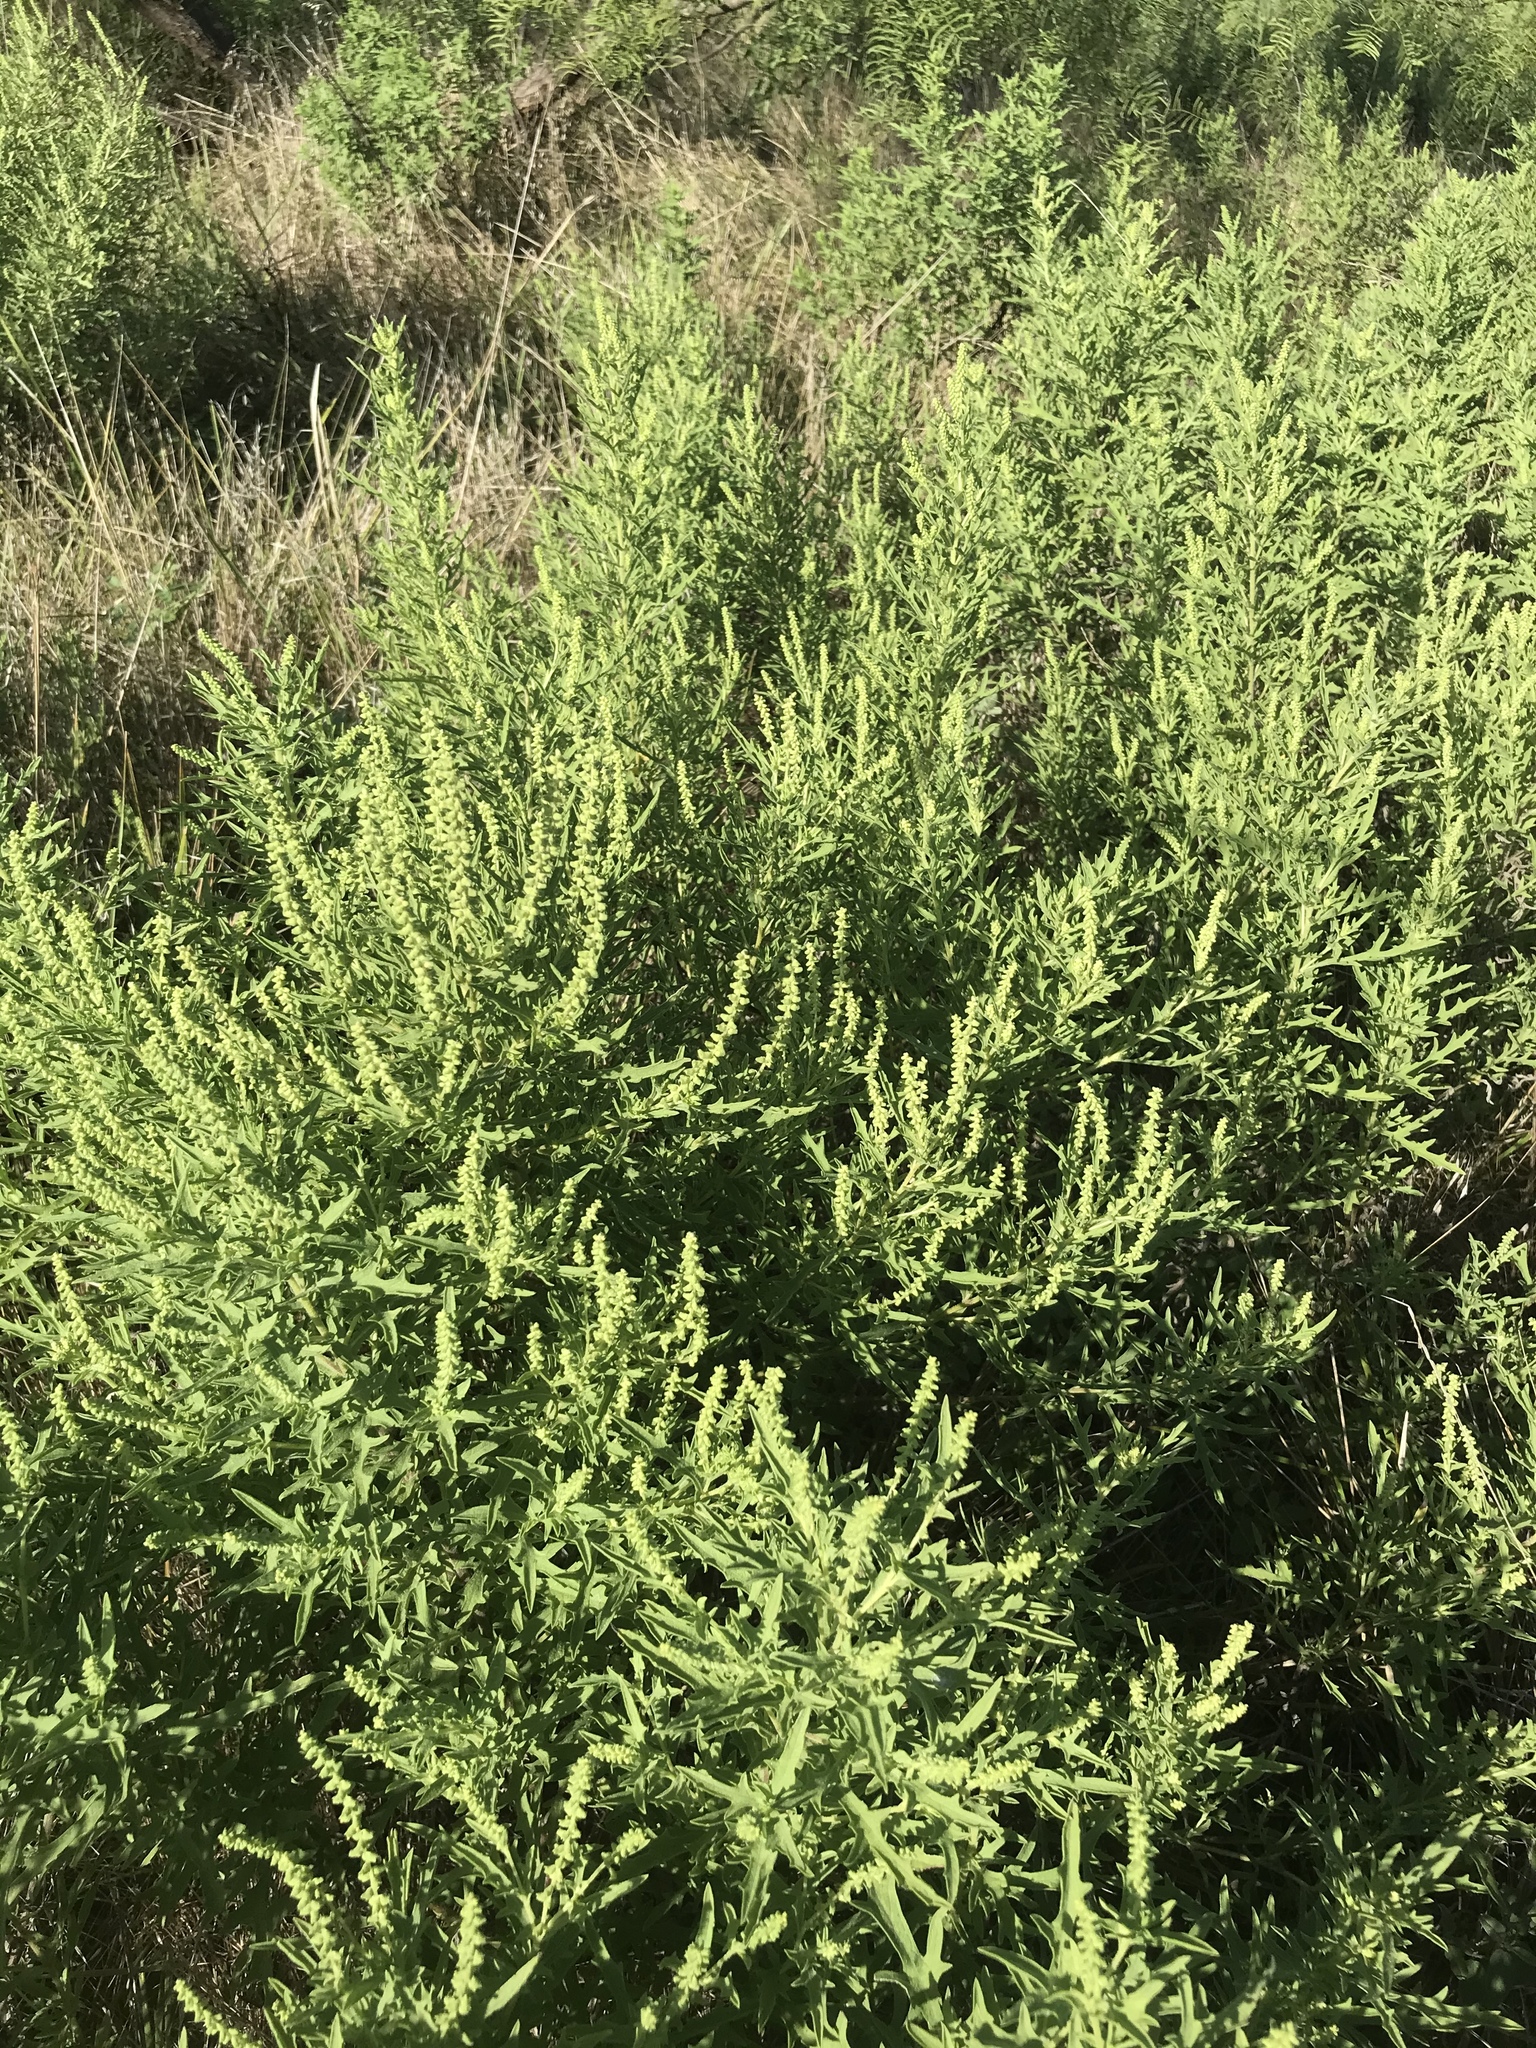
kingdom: Plantae
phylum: Tracheophyta
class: Magnoliopsida
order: Asterales
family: Asteraceae
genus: Ambrosia
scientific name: Ambrosia psilostachya
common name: Perennial ragweed
